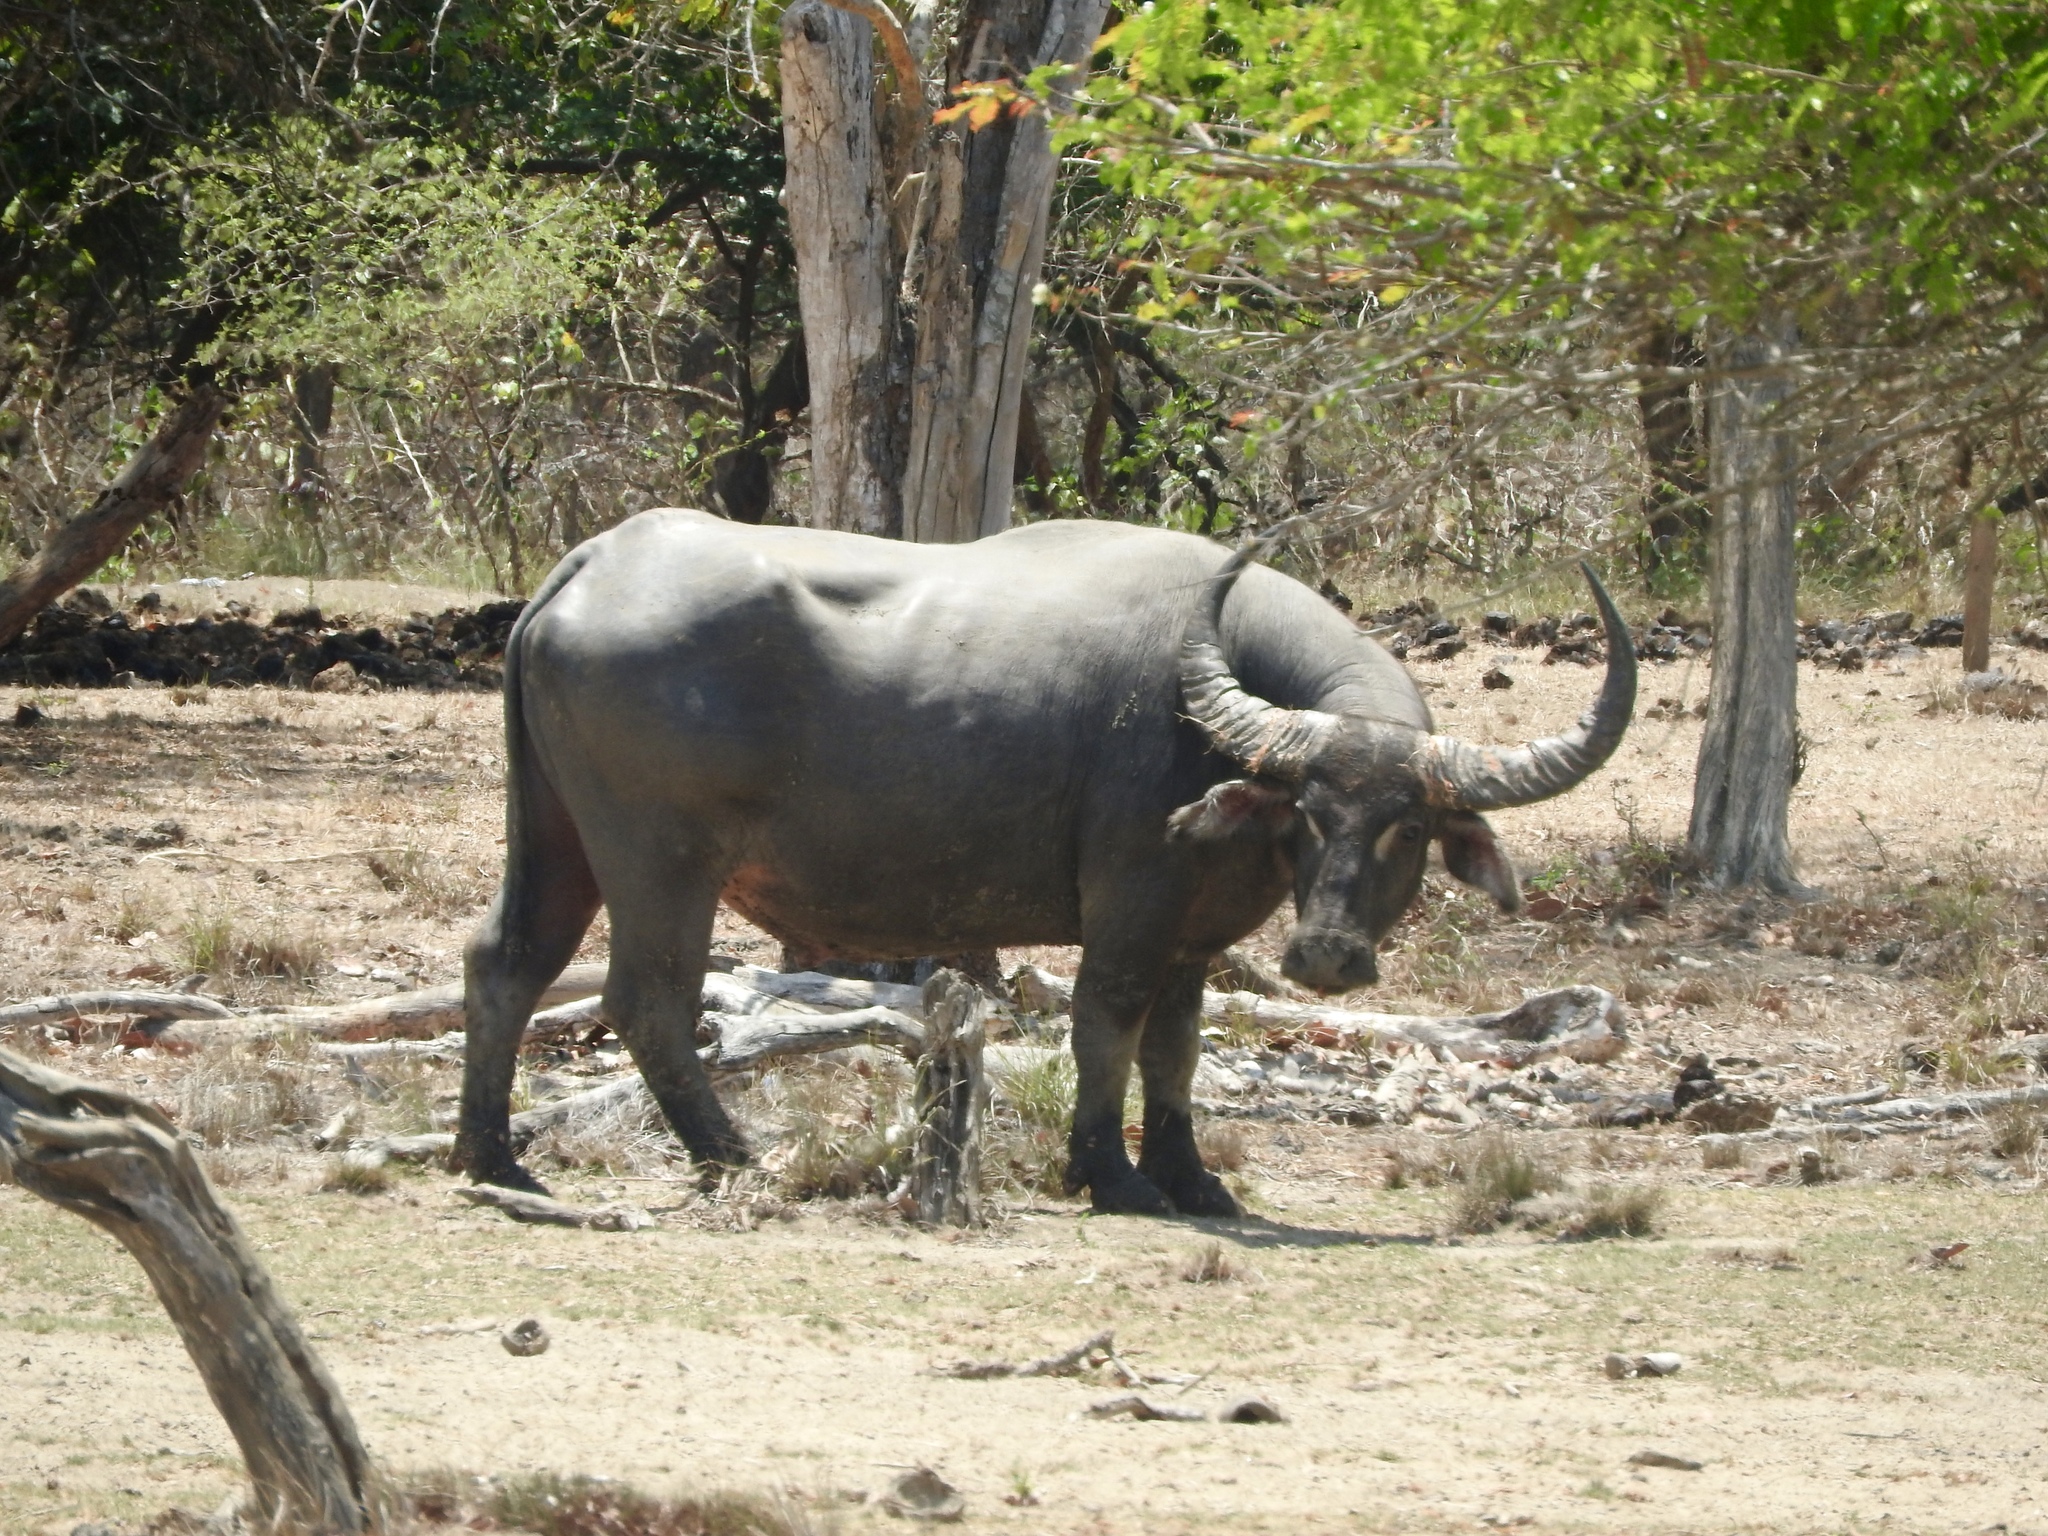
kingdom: Animalia
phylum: Chordata
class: Mammalia
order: Artiodactyla
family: Bovidae
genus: Bubalus
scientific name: Bubalus bubalis
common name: Water buffalo
